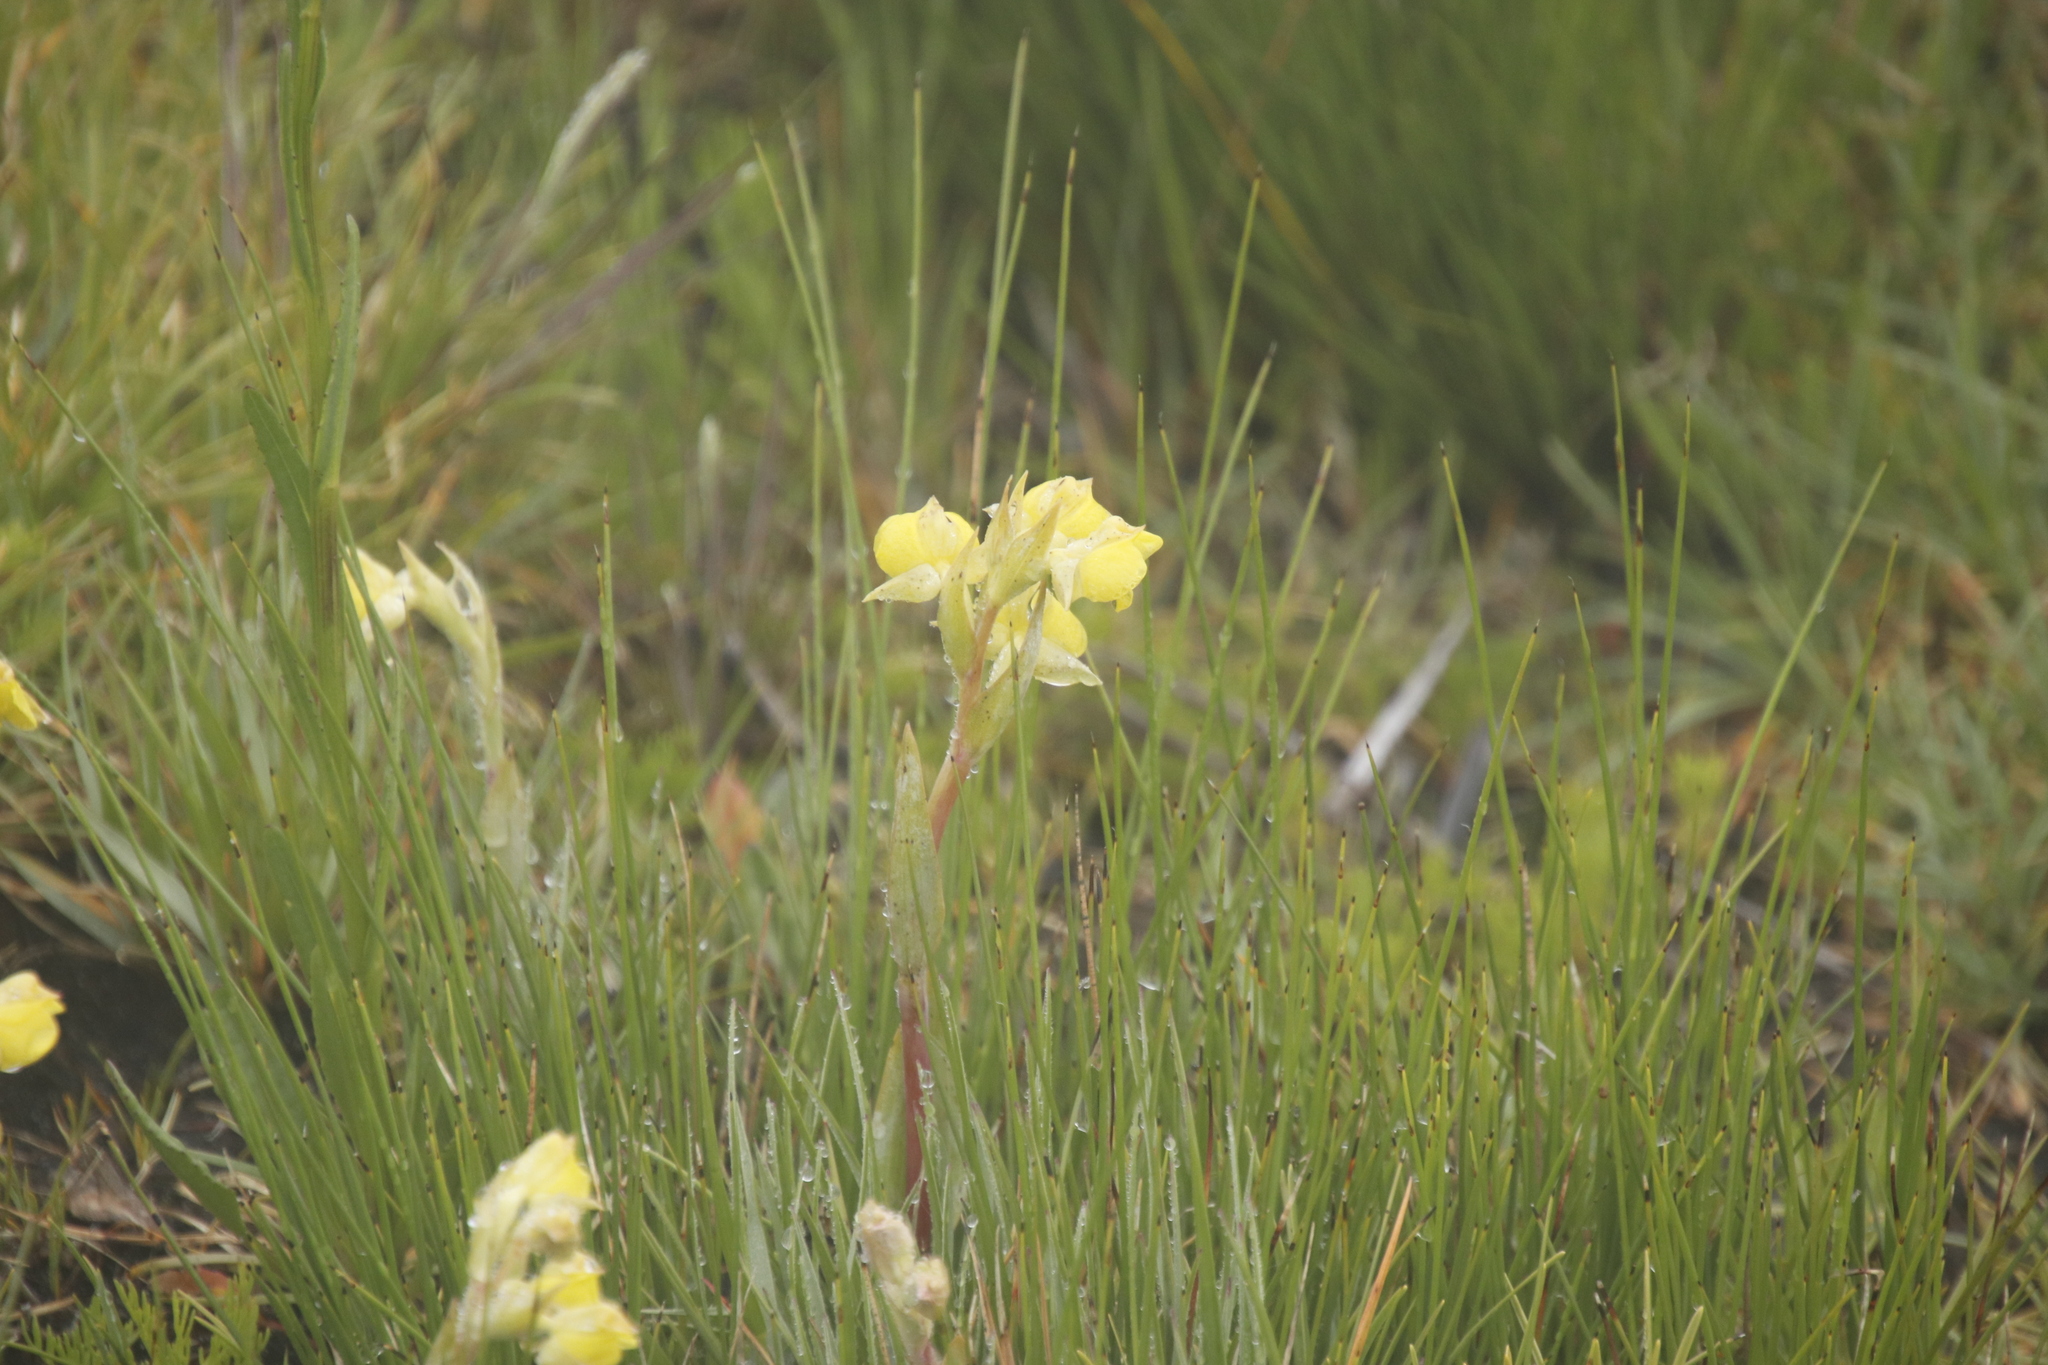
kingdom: Plantae
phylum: Tracheophyta
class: Liliopsida
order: Asparagales
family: Orchidaceae
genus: Pterygodium
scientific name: Pterygodium acutifolium
